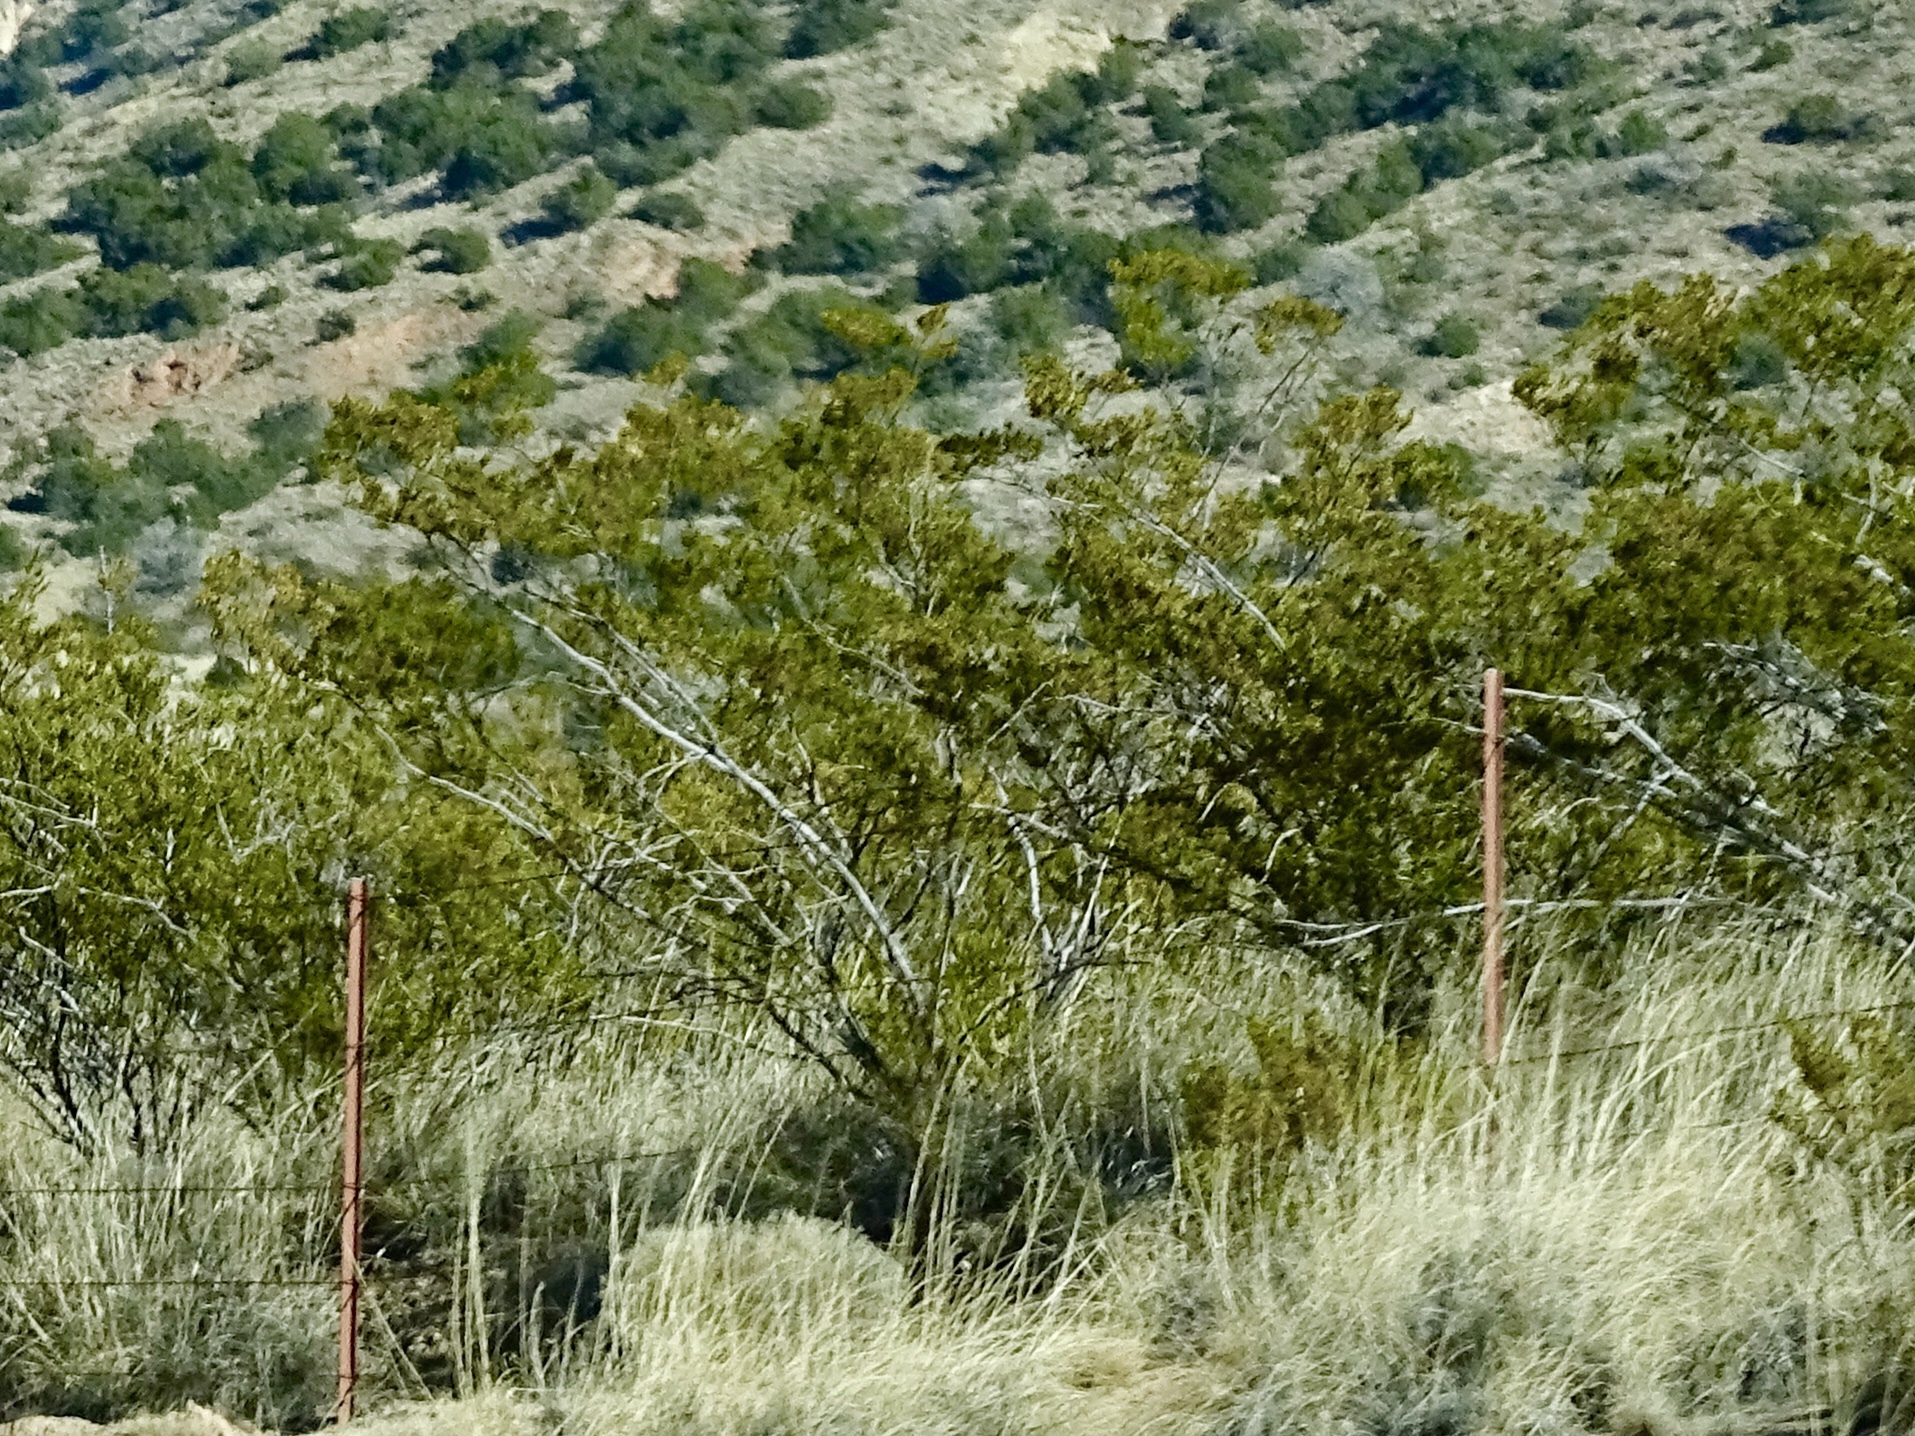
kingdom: Plantae
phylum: Tracheophyta
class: Magnoliopsida
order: Zygophyllales
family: Zygophyllaceae
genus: Larrea
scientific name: Larrea tridentata
